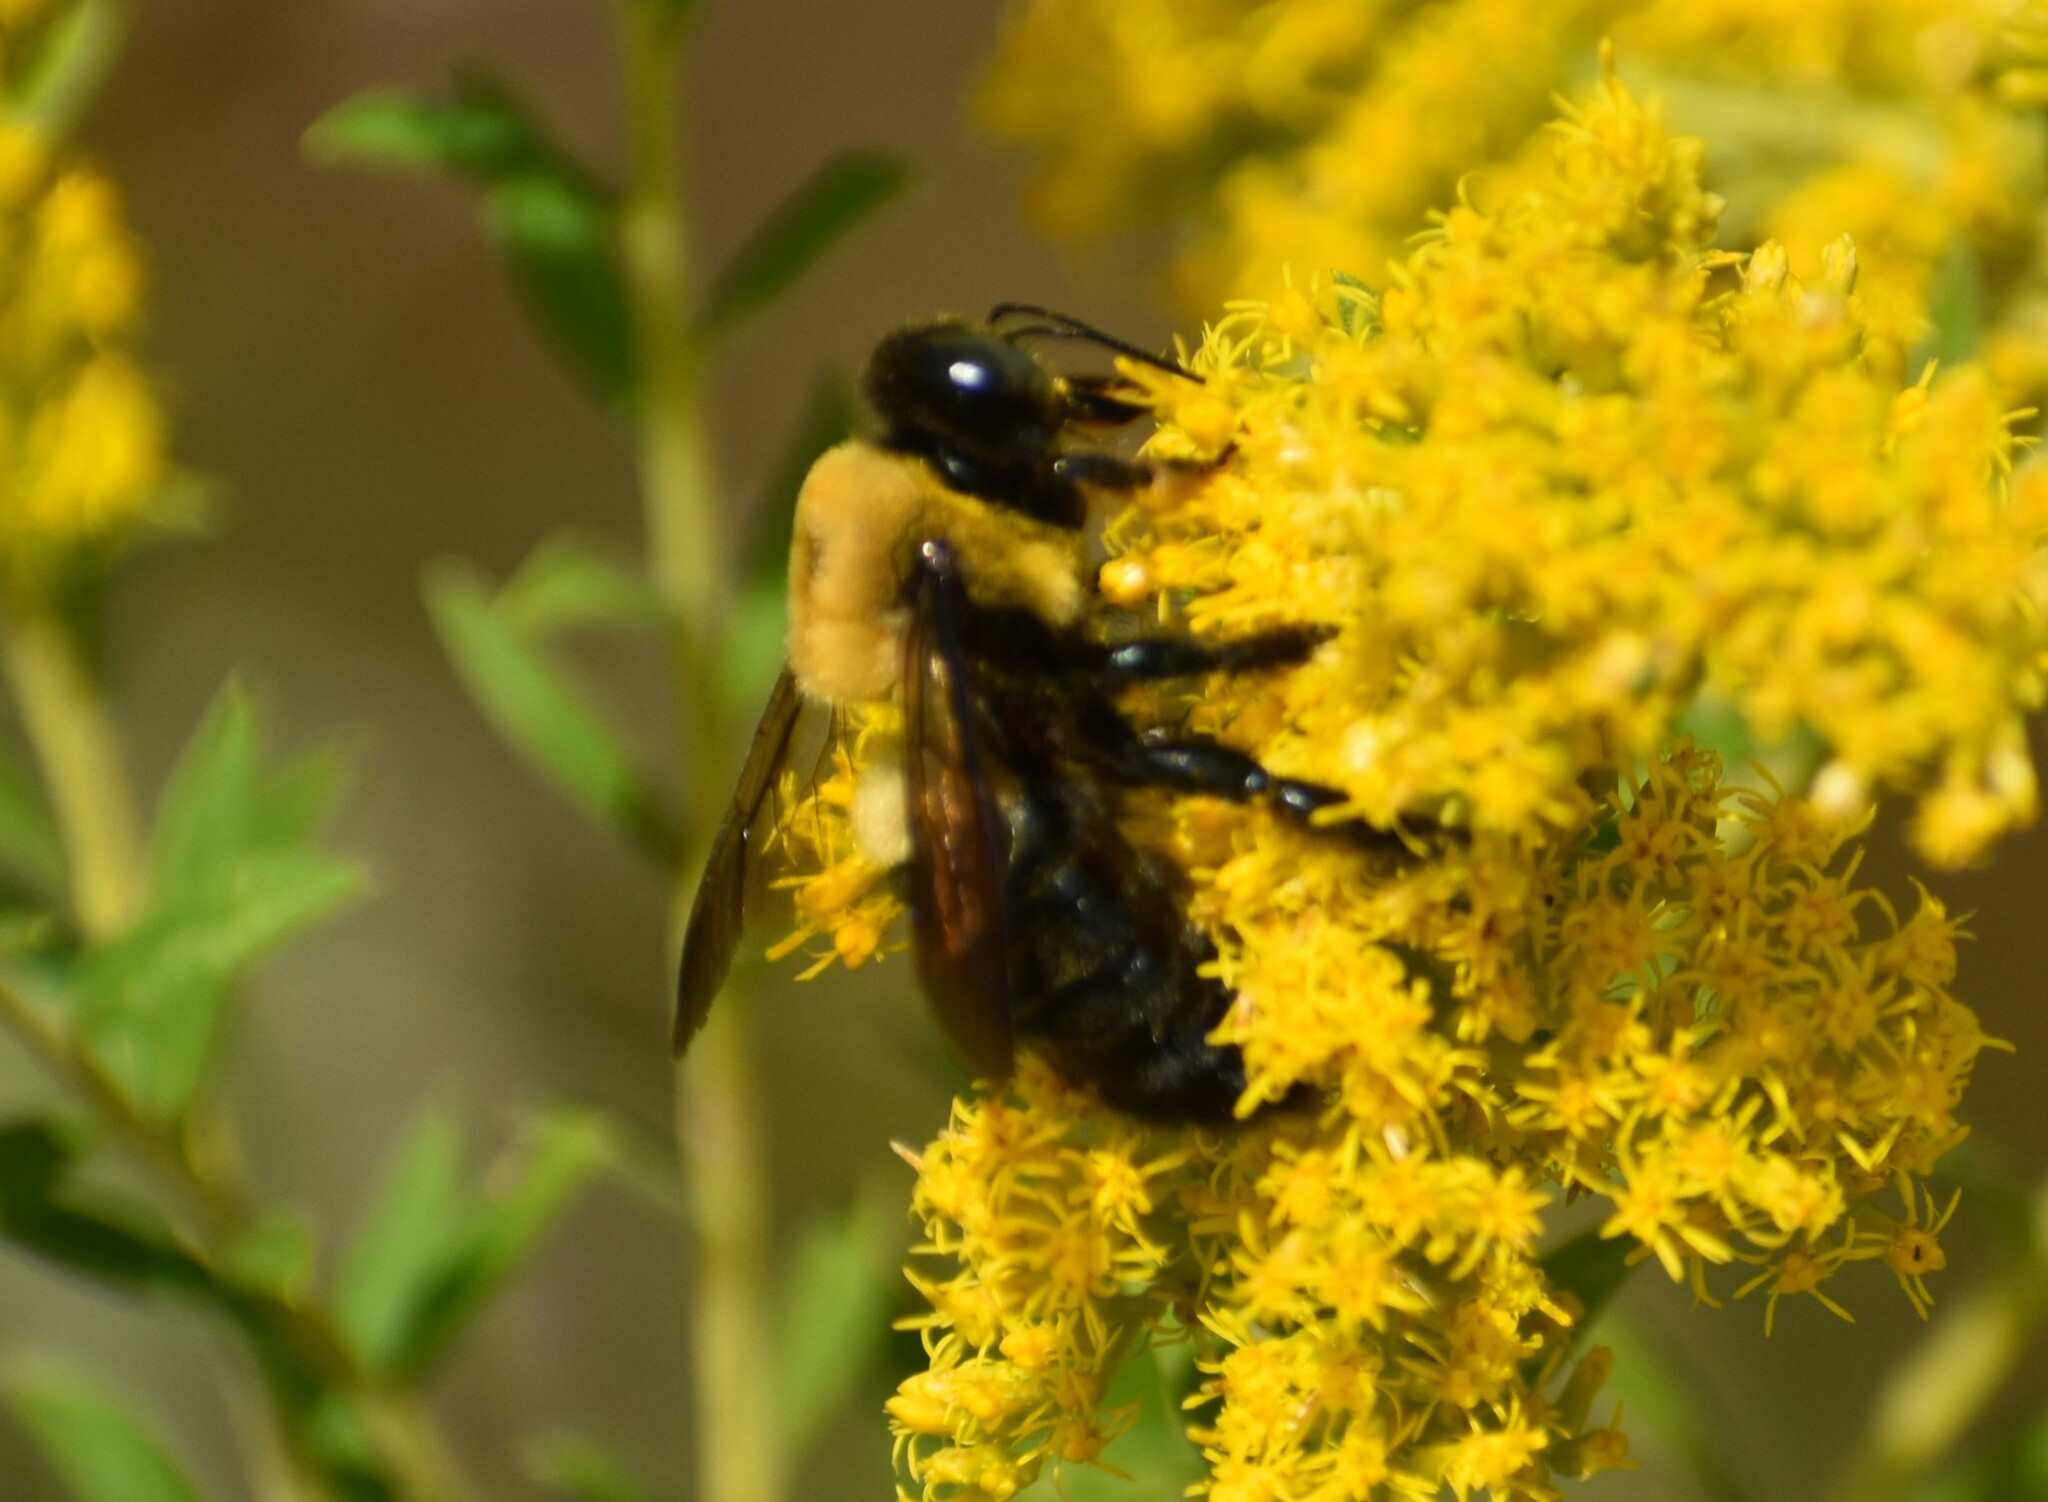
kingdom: Animalia
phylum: Arthropoda
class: Insecta
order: Hymenoptera
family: Apidae
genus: Xylocopa
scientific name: Xylocopa virginica
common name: Carpenter bee
